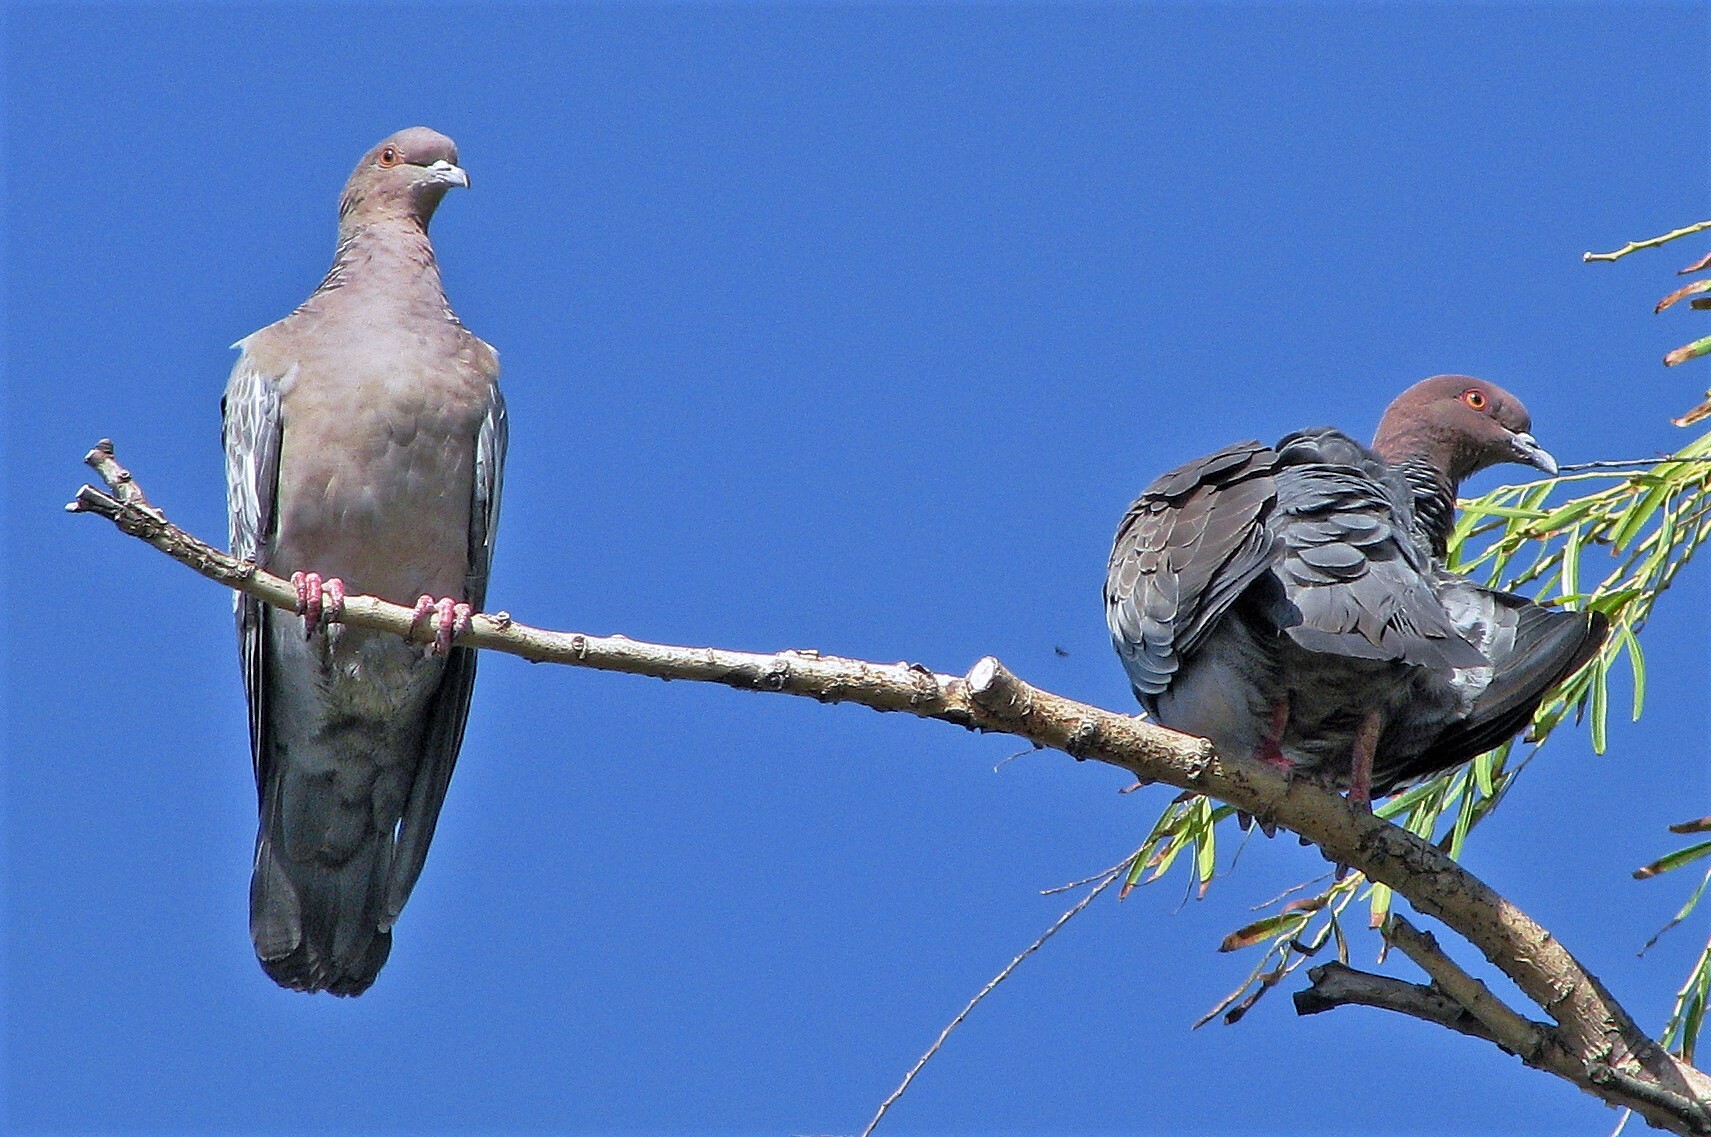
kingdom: Animalia
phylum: Chordata
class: Aves
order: Columbiformes
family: Columbidae
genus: Patagioenas
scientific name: Patagioenas picazuro
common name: Picazuro pigeon
